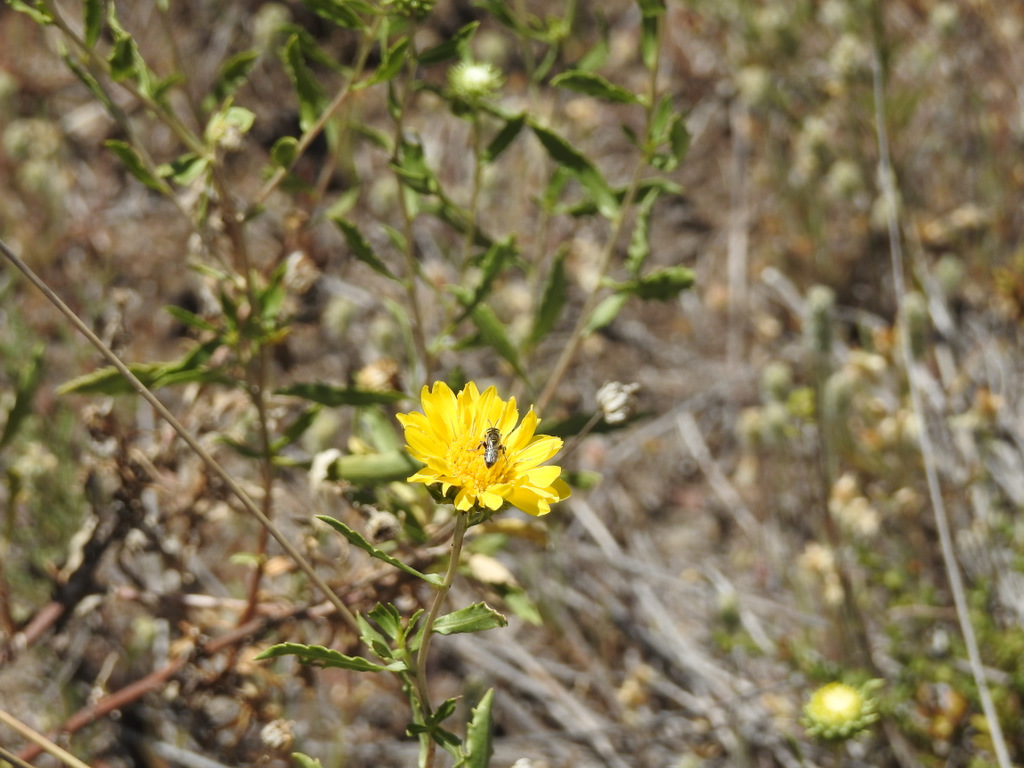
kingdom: Plantae
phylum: Tracheophyta
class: Magnoliopsida
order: Asterales
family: Asteraceae
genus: Grindelia
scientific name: Grindelia brachystephana
